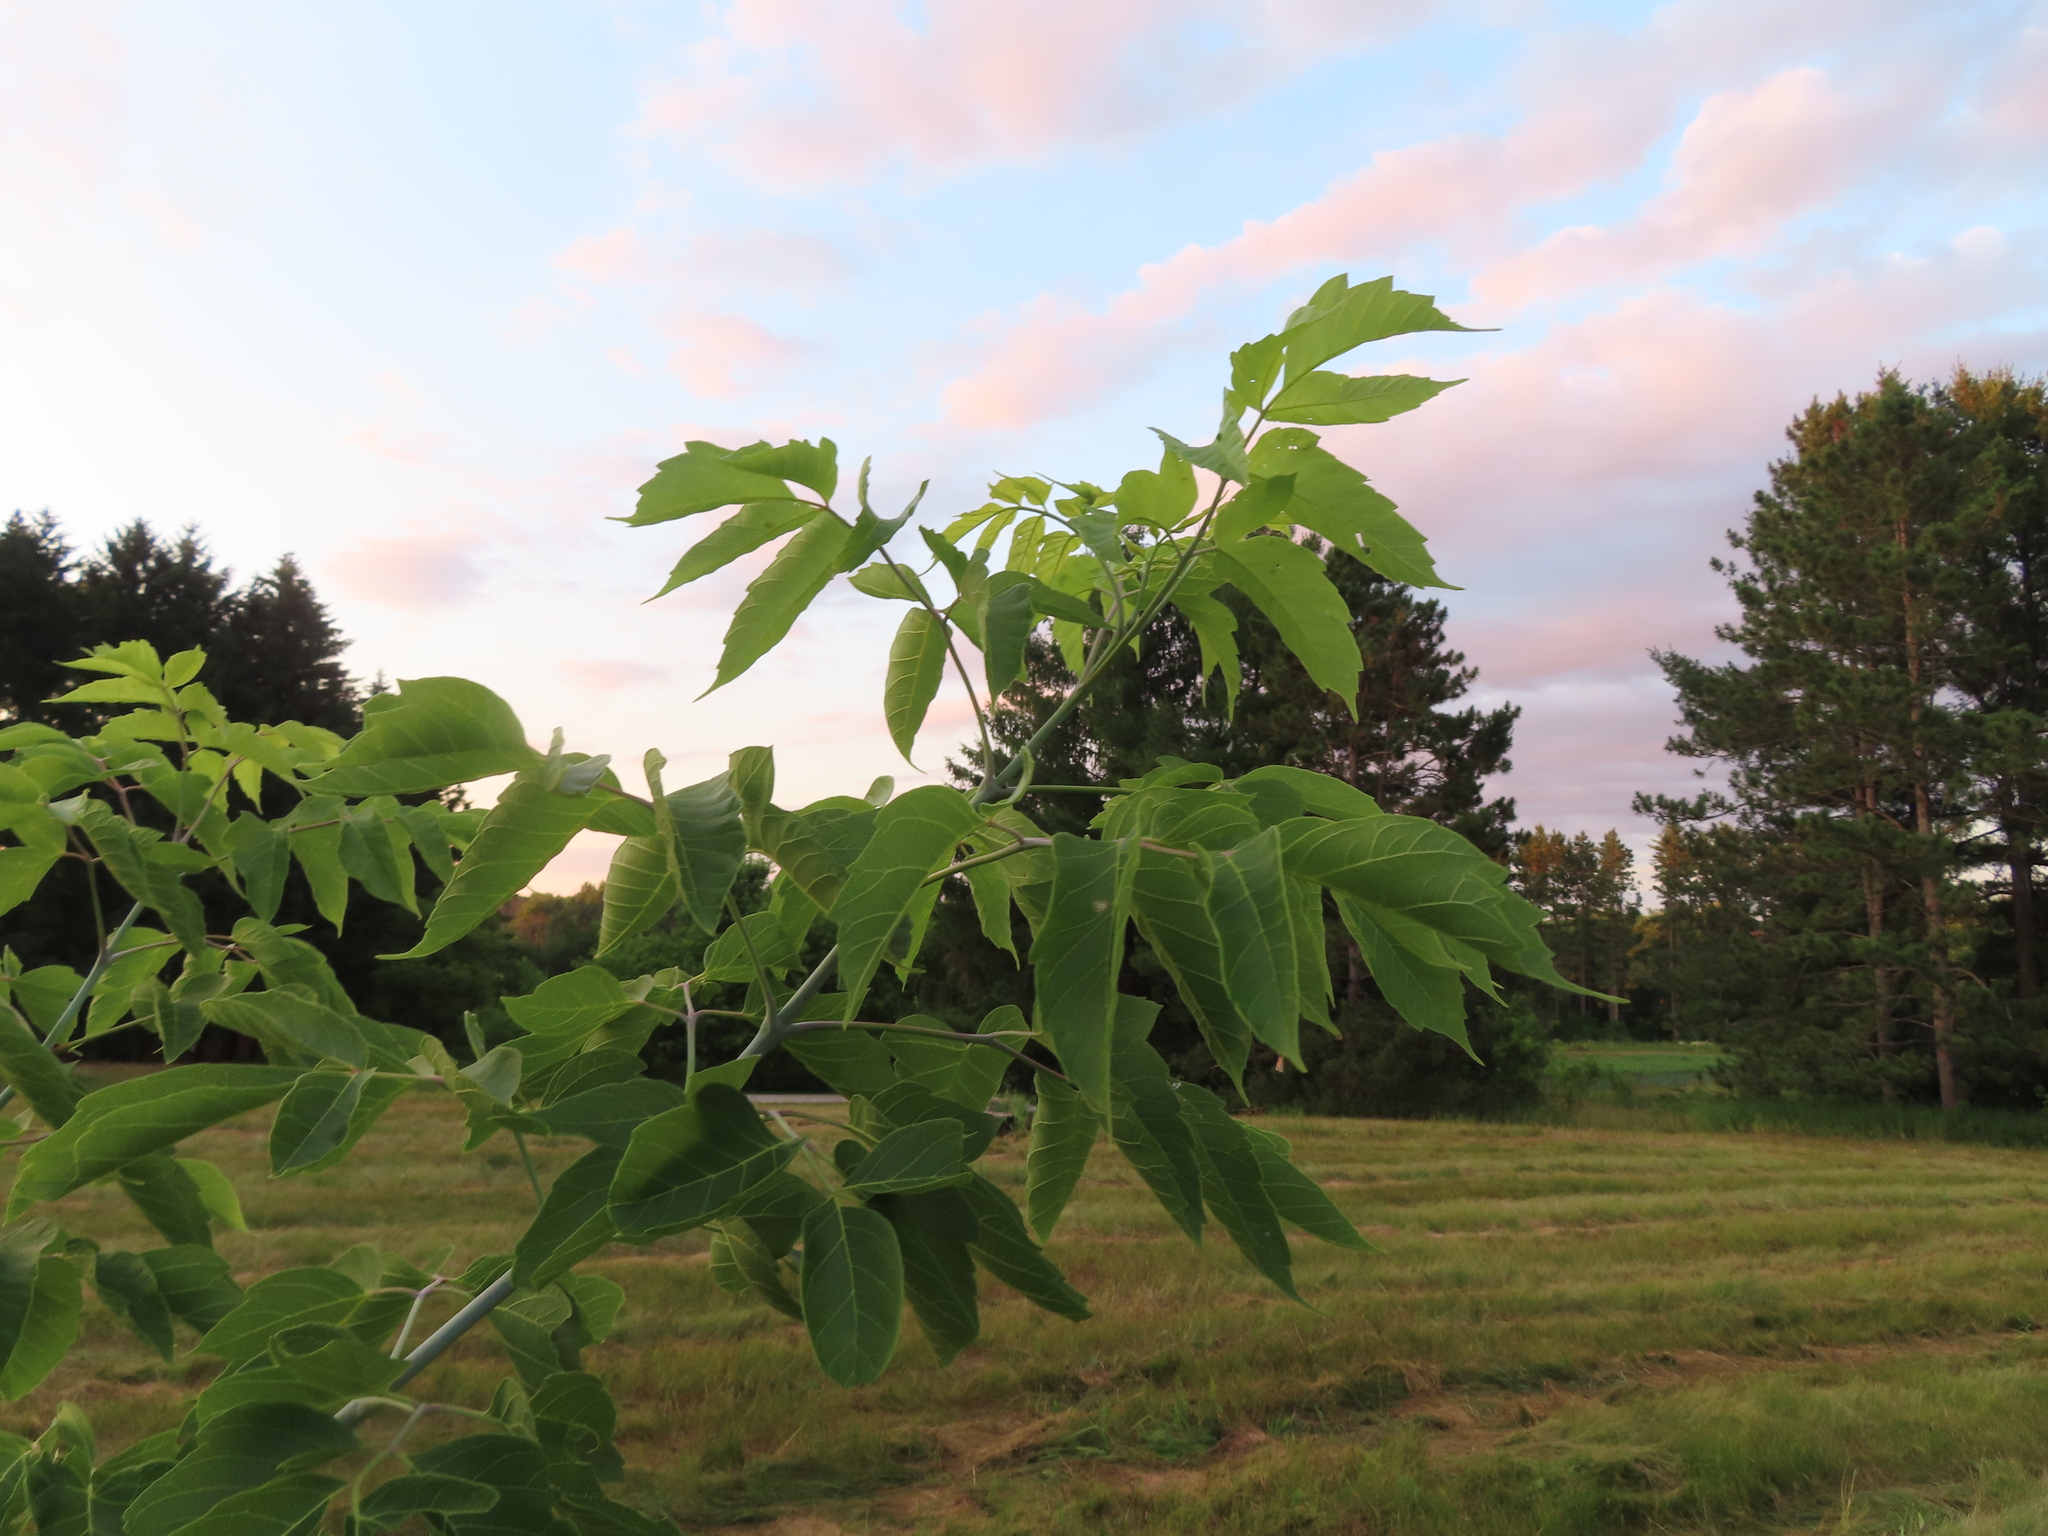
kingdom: Plantae
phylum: Tracheophyta
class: Magnoliopsida
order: Sapindales
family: Sapindaceae
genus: Acer
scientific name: Acer negundo
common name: Ashleaf maple
